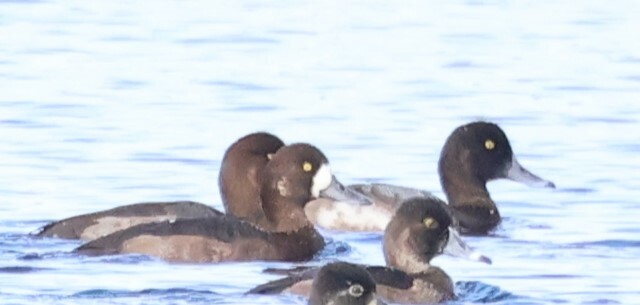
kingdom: Animalia
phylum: Chordata
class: Aves
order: Anseriformes
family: Anatidae
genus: Aythya
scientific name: Aythya marila
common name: Greater scaup
